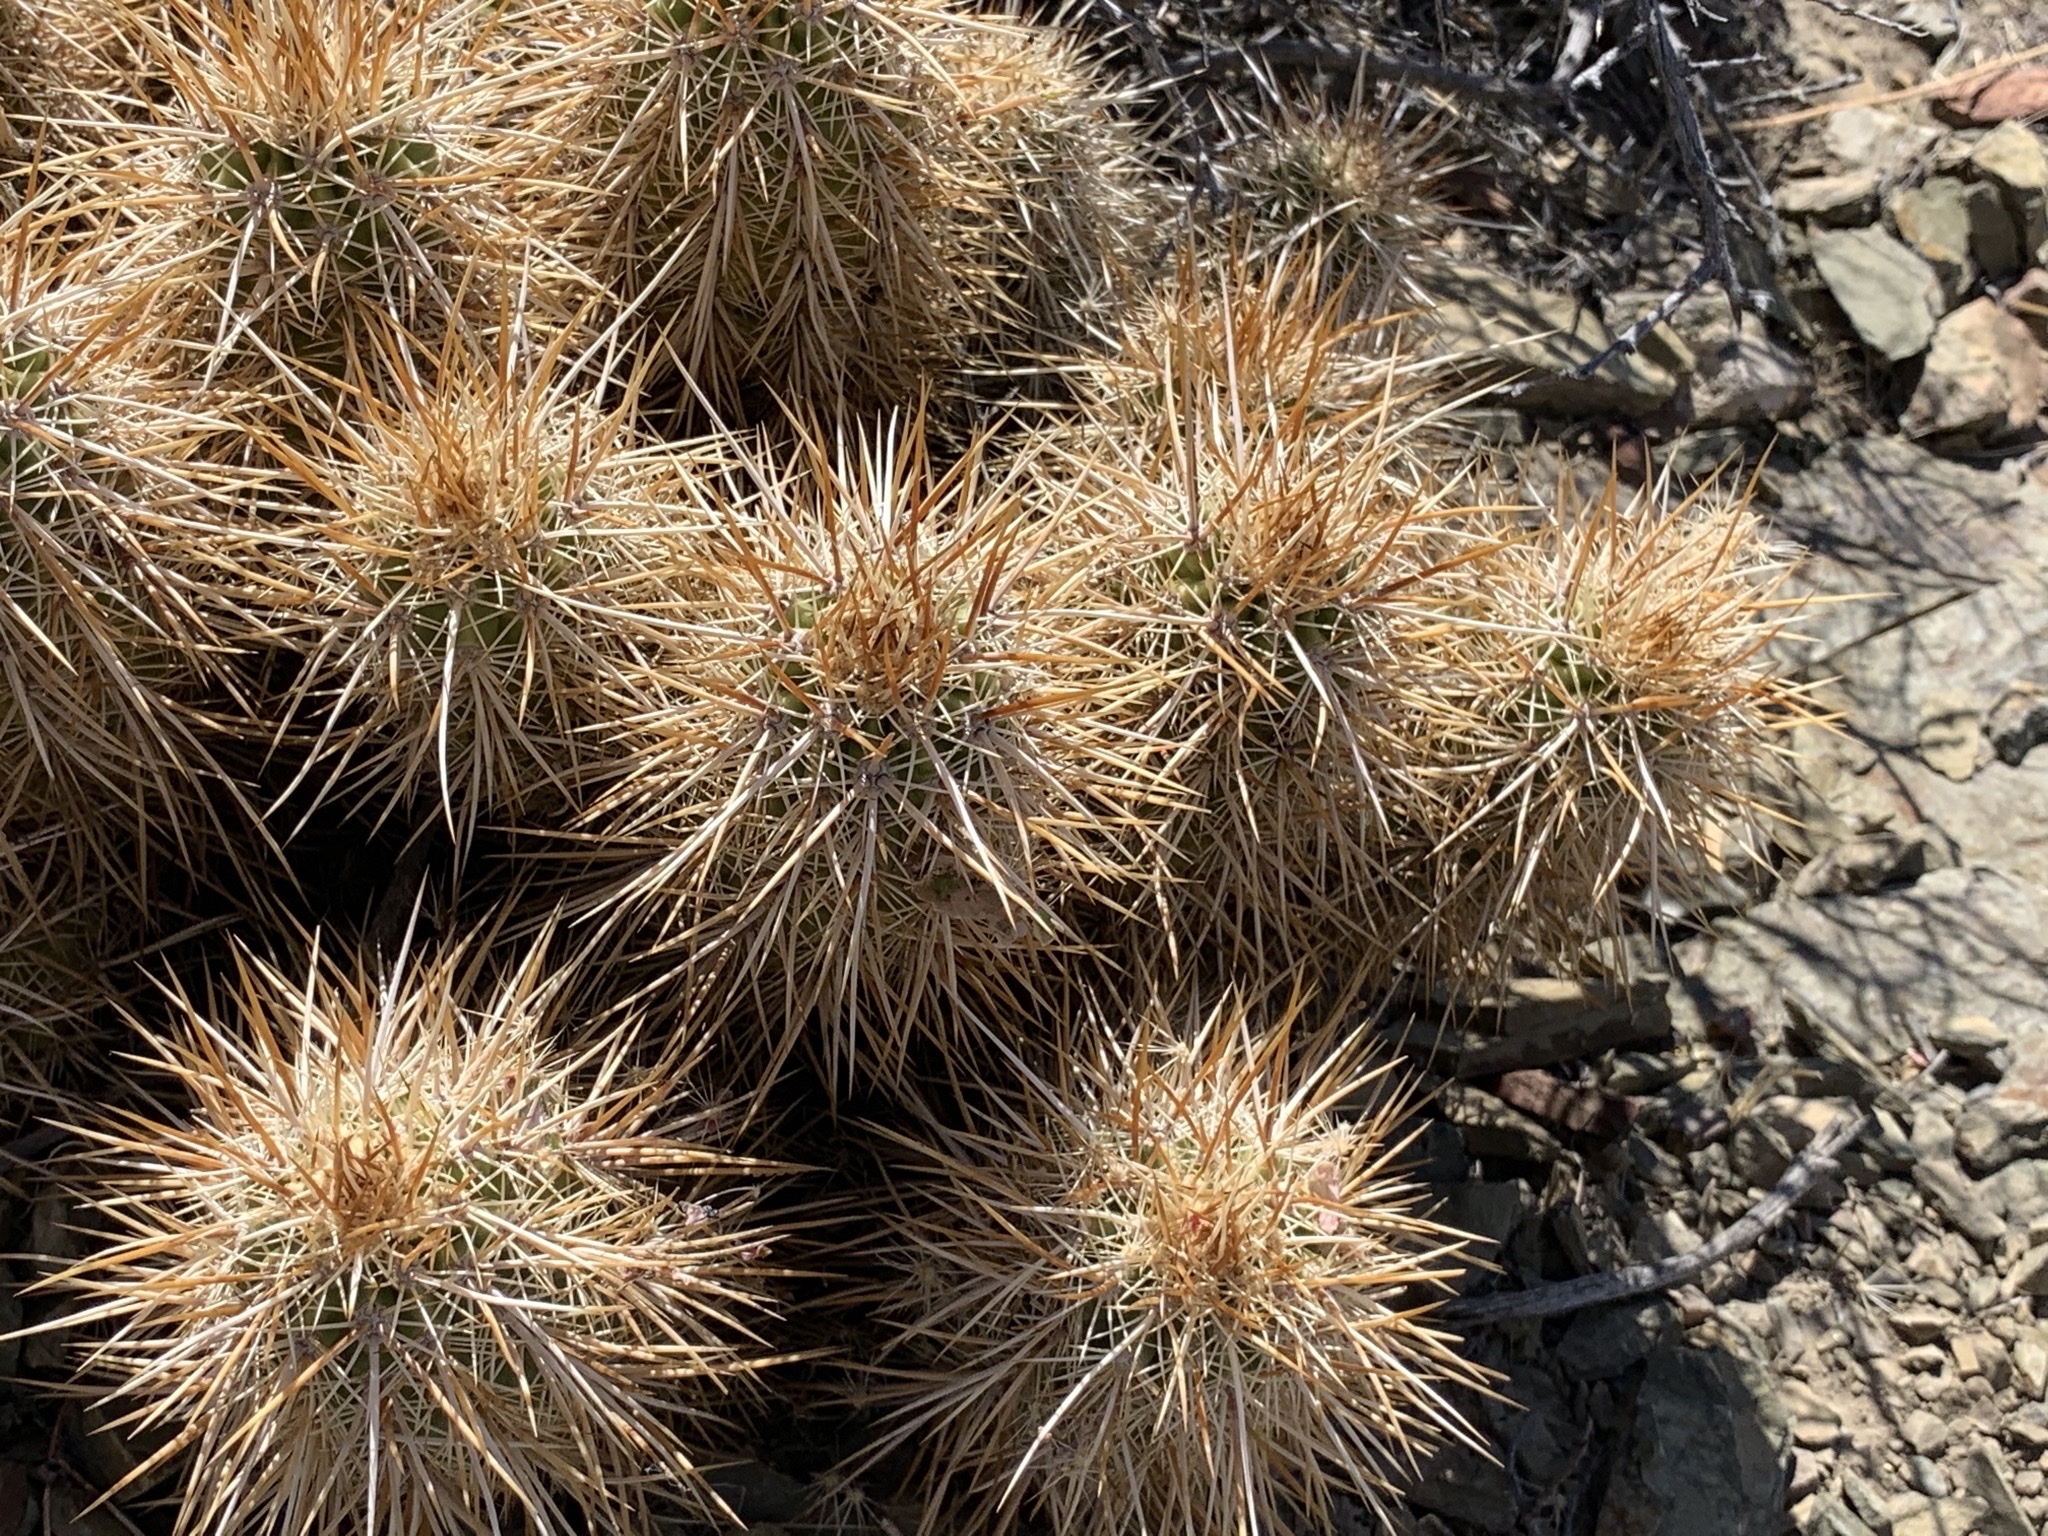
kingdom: Plantae
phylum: Tracheophyta
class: Magnoliopsida
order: Caryophyllales
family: Cactaceae
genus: Echinocereus
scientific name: Echinocereus engelmannii
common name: Engelmann's hedgehog cactus
